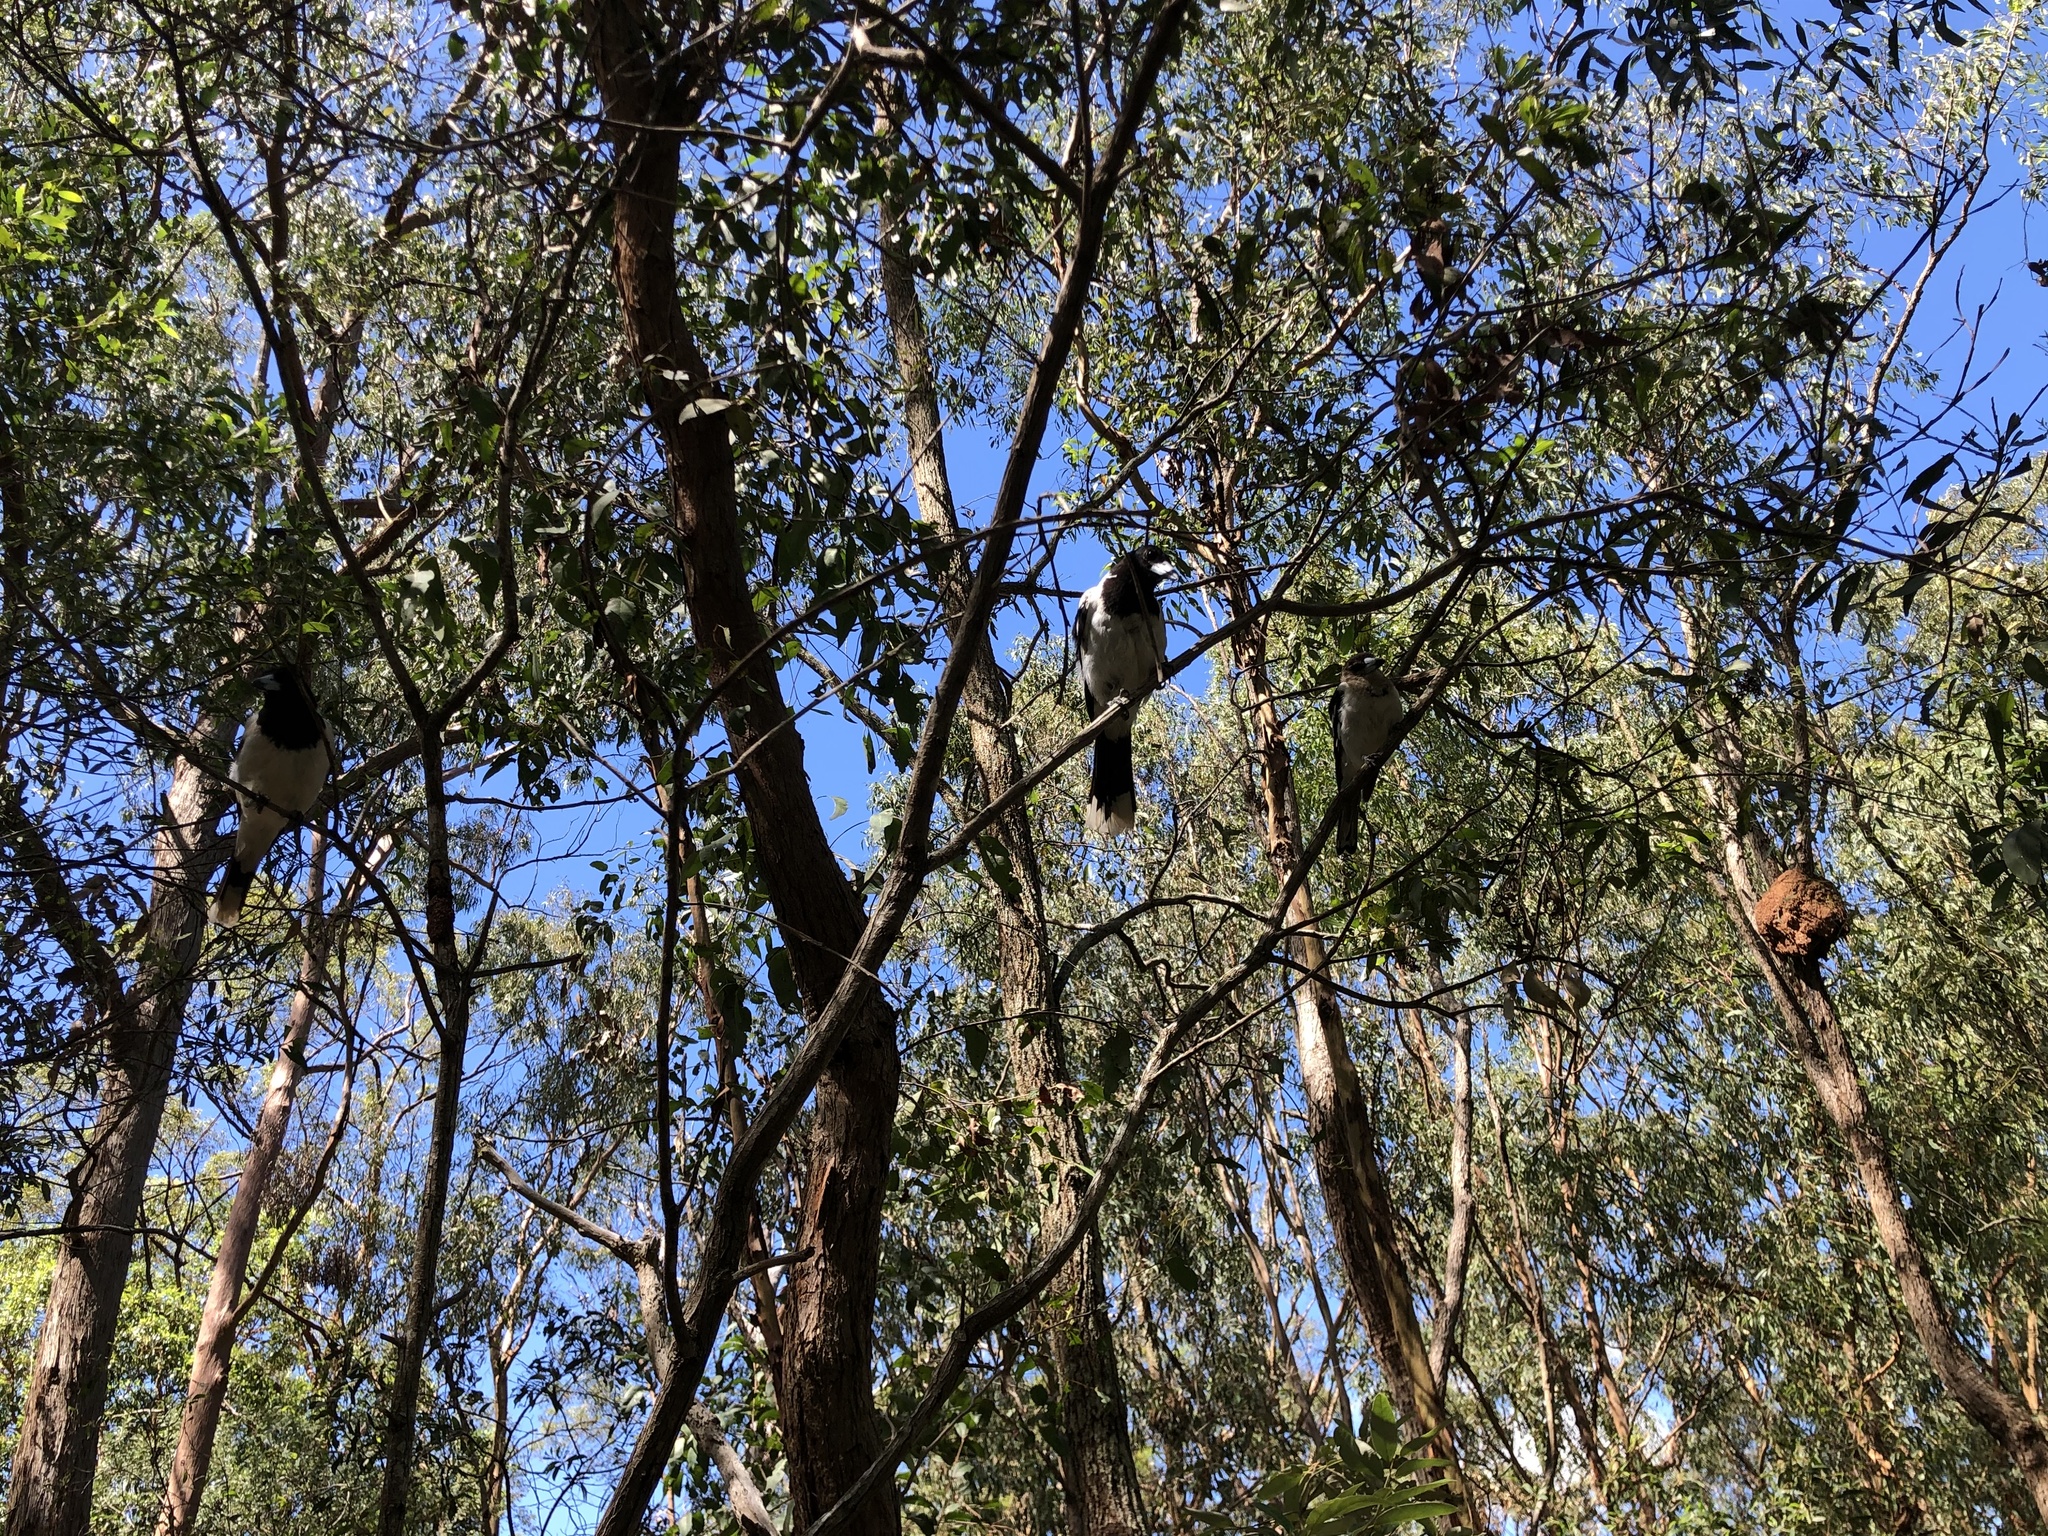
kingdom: Animalia
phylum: Chordata
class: Aves
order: Passeriformes
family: Cracticidae
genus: Cracticus
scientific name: Cracticus nigrogularis
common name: Pied butcherbird
